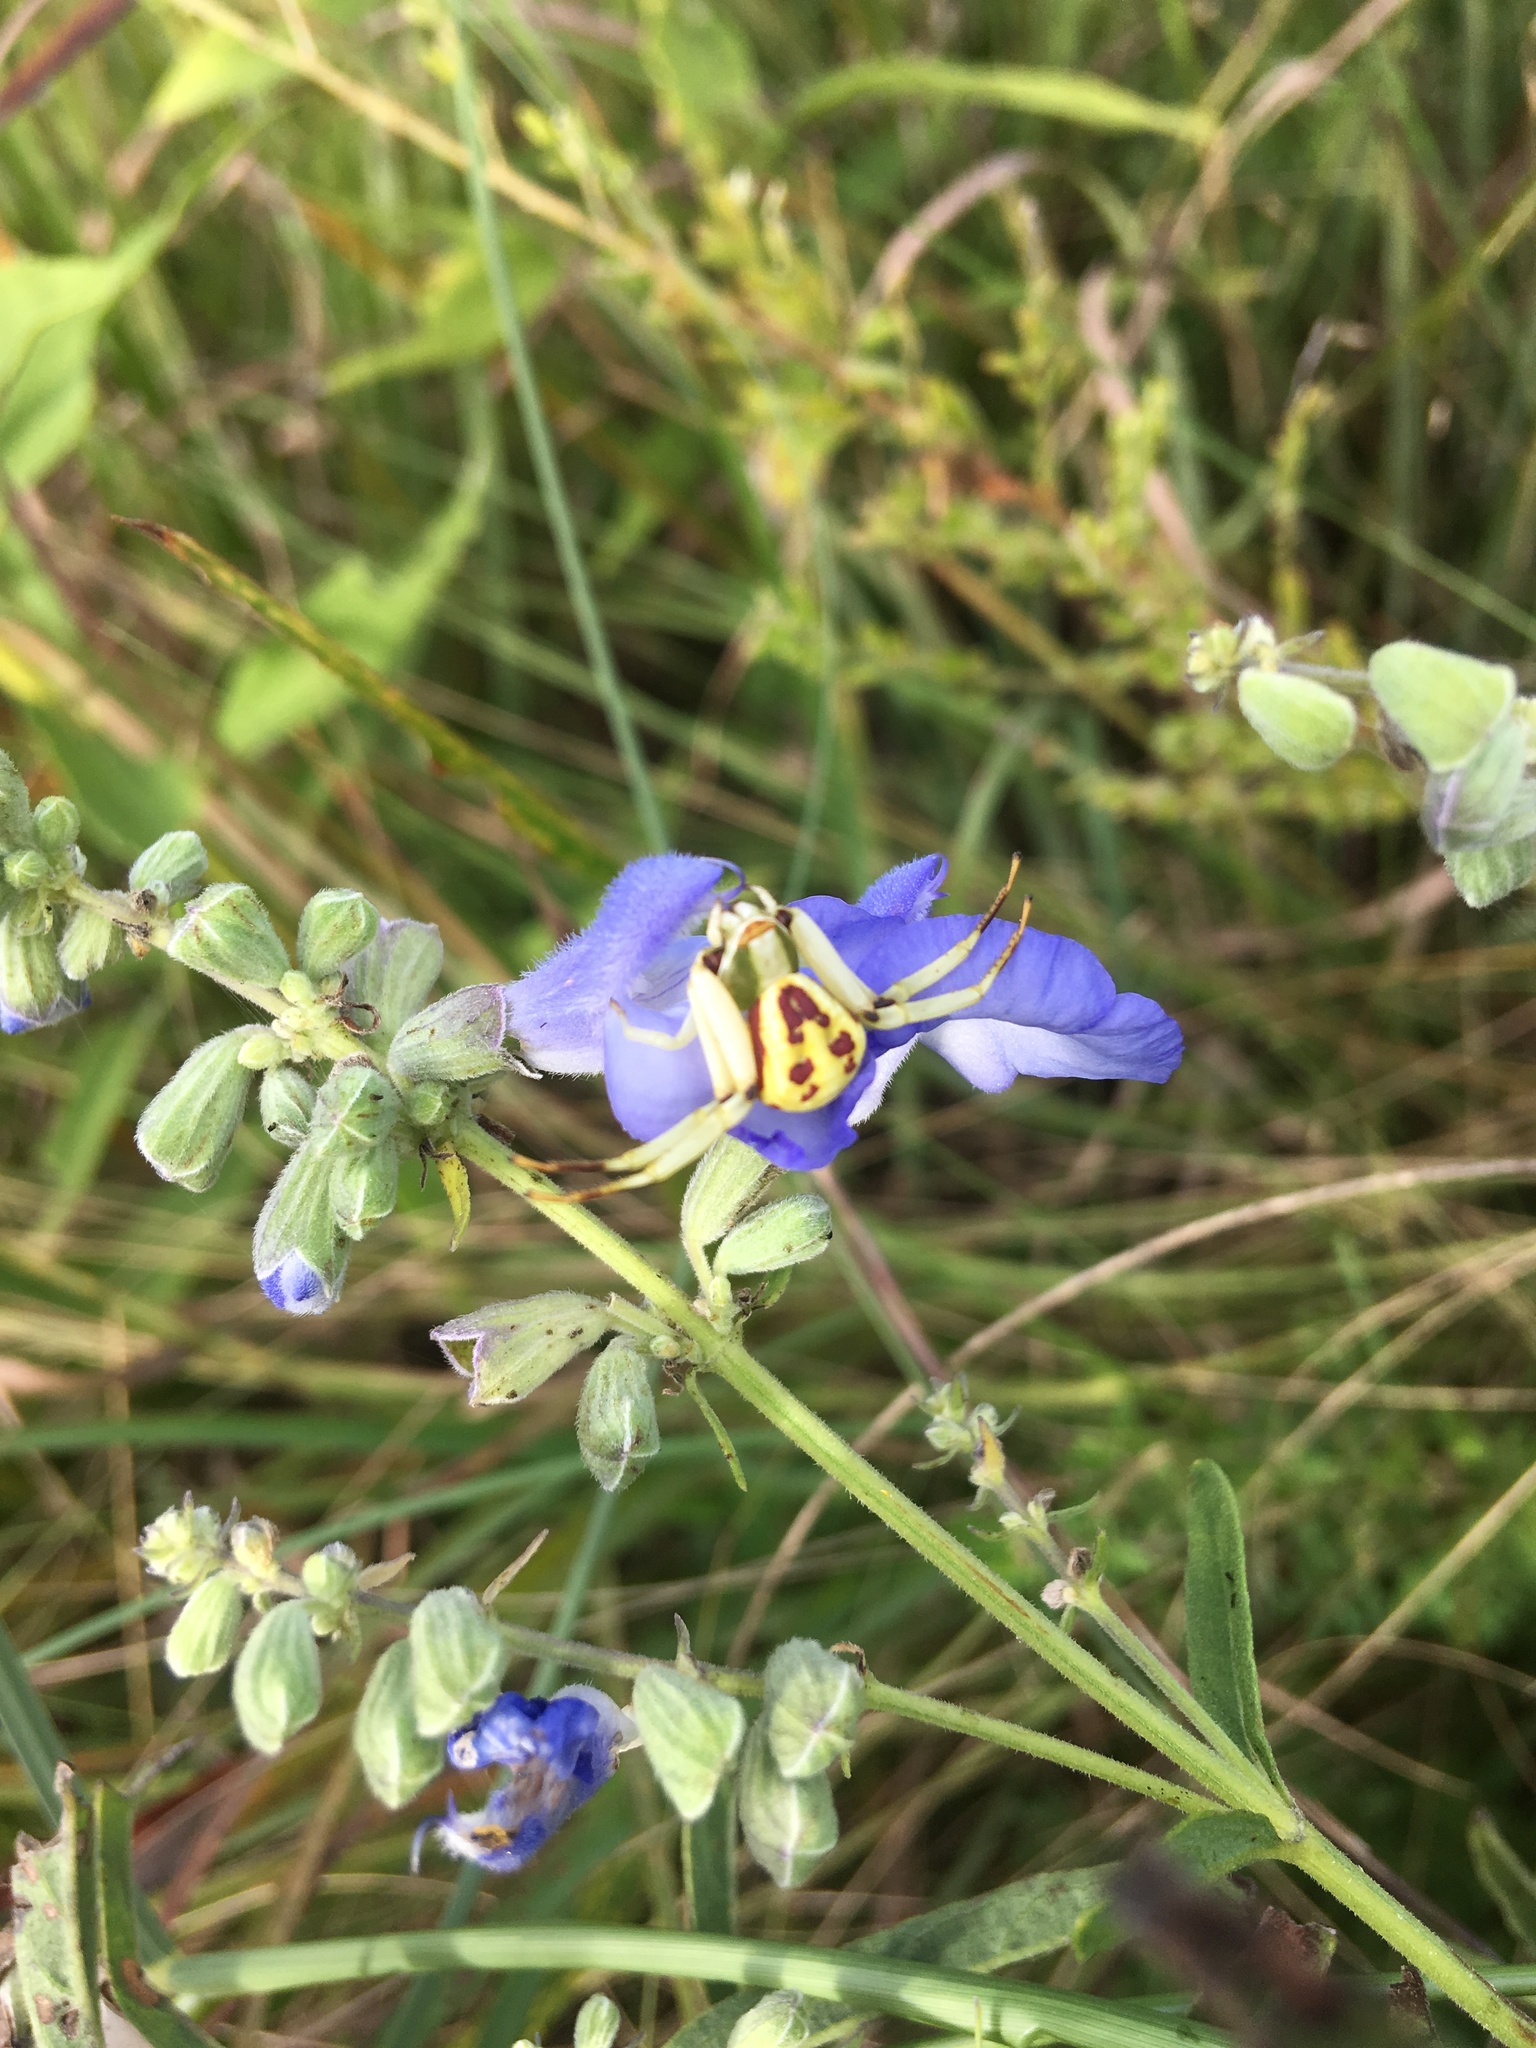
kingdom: Animalia
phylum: Arthropoda
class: Arachnida
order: Araneae
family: Thomisidae
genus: Misumenoides
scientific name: Misumenoides formosipes
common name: White-banded crab spider
